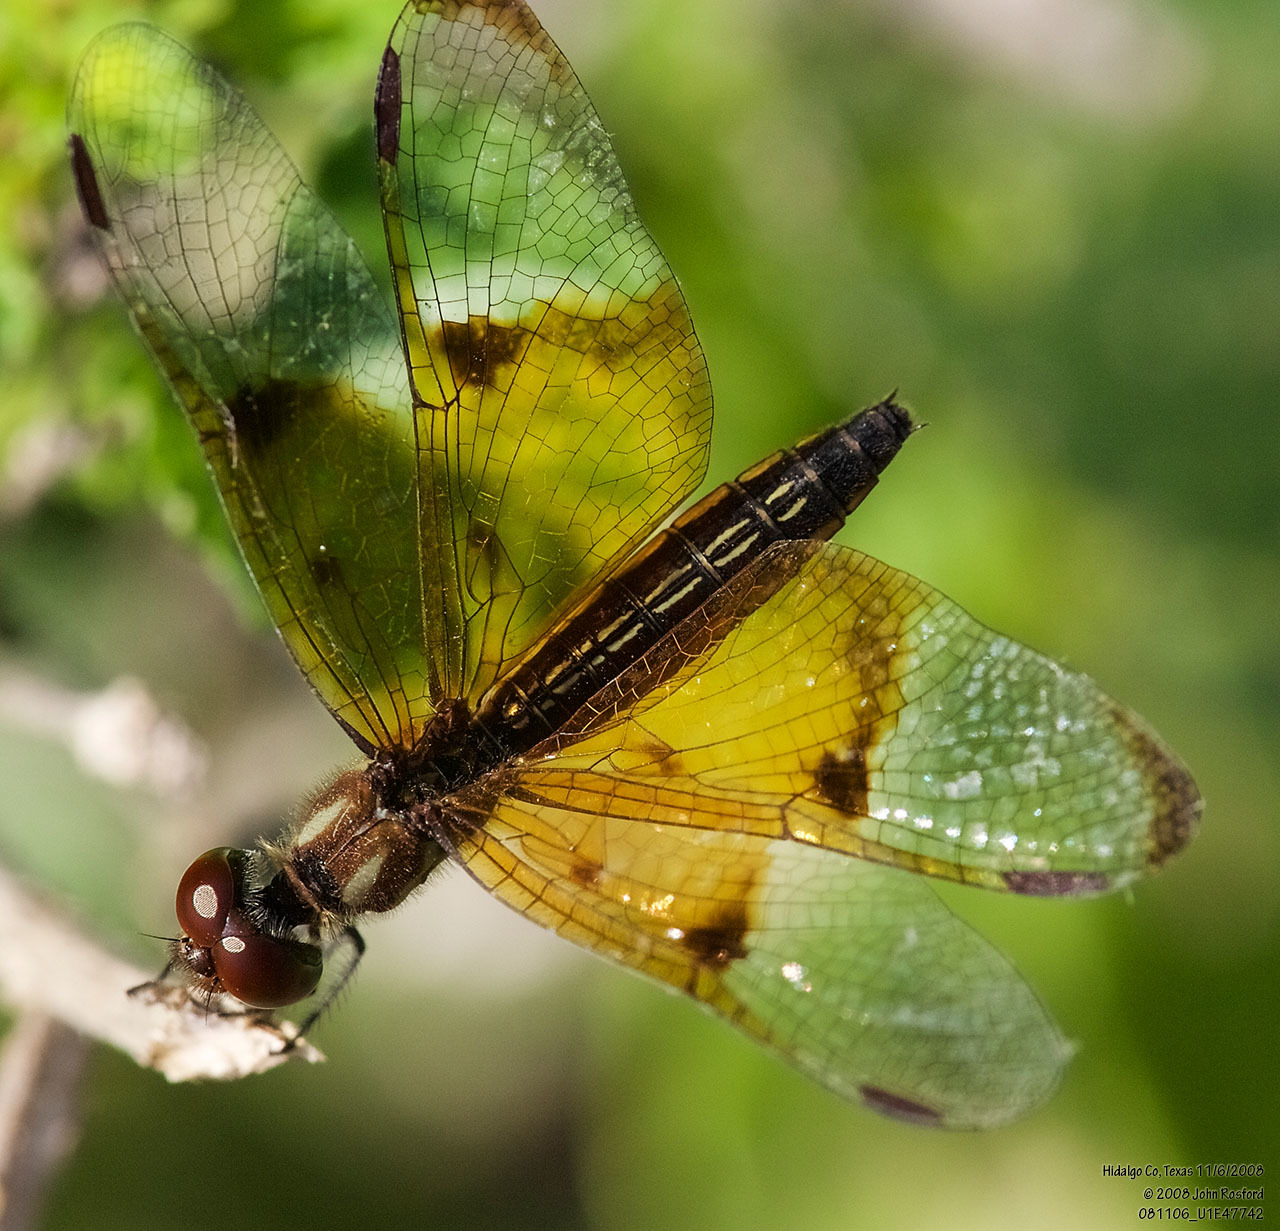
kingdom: Animalia
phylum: Arthropoda
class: Insecta
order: Odonata
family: Libellulidae
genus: Perithemis
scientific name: Perithemis domitia
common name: Slough amberwing
